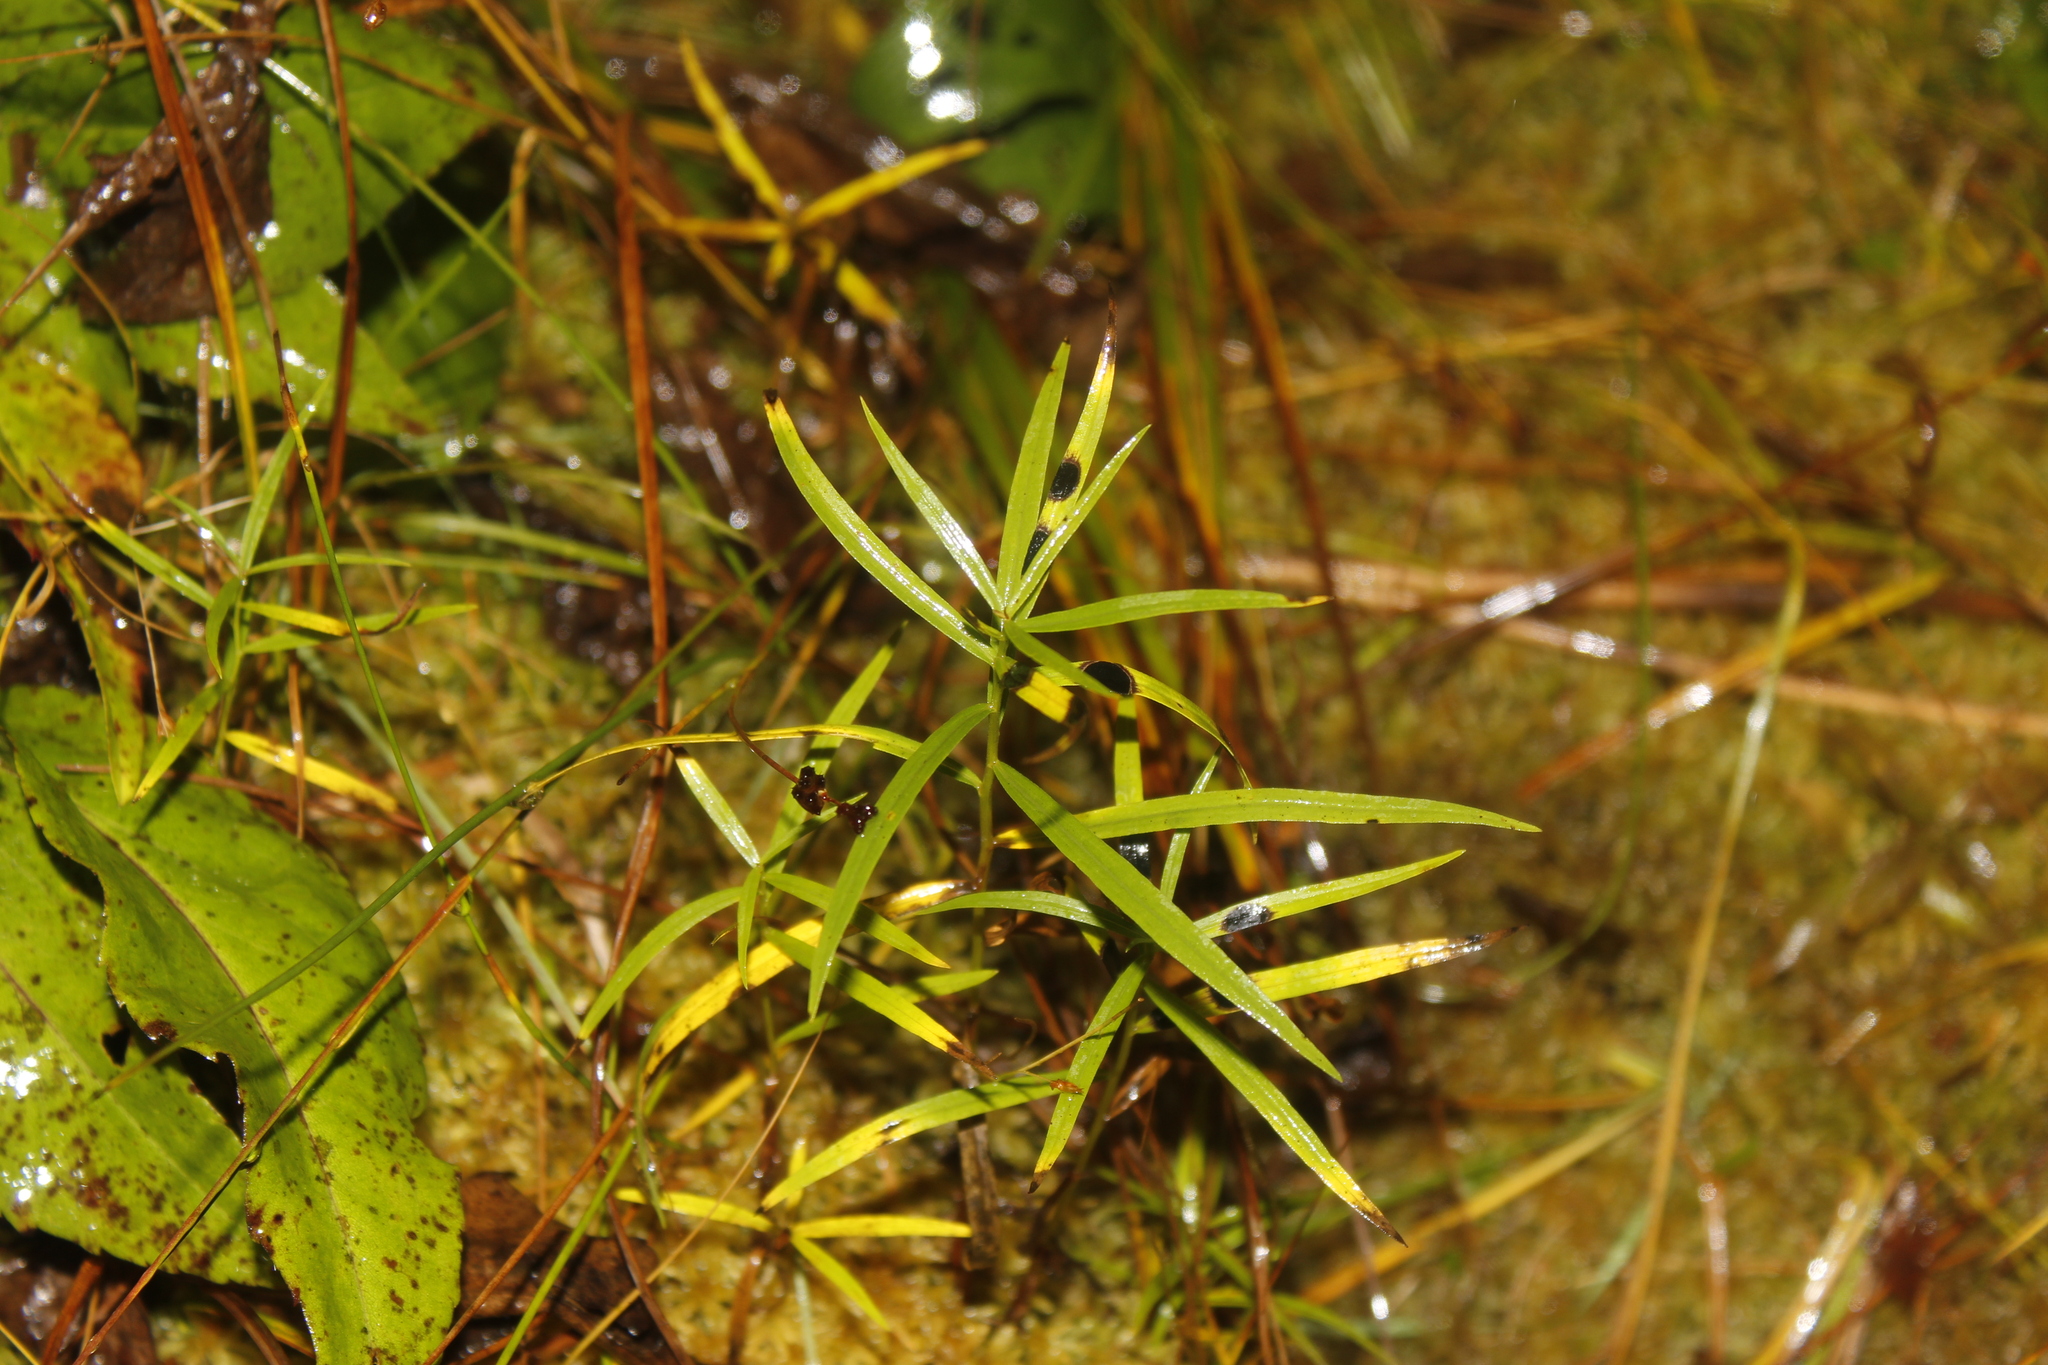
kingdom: Animalia
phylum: Arthropoda
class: Insecta
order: Diptera
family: Cecidomyiidae
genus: Asteromyia
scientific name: Asteromyia euthamiae
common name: Euthamia leaf gall midge
